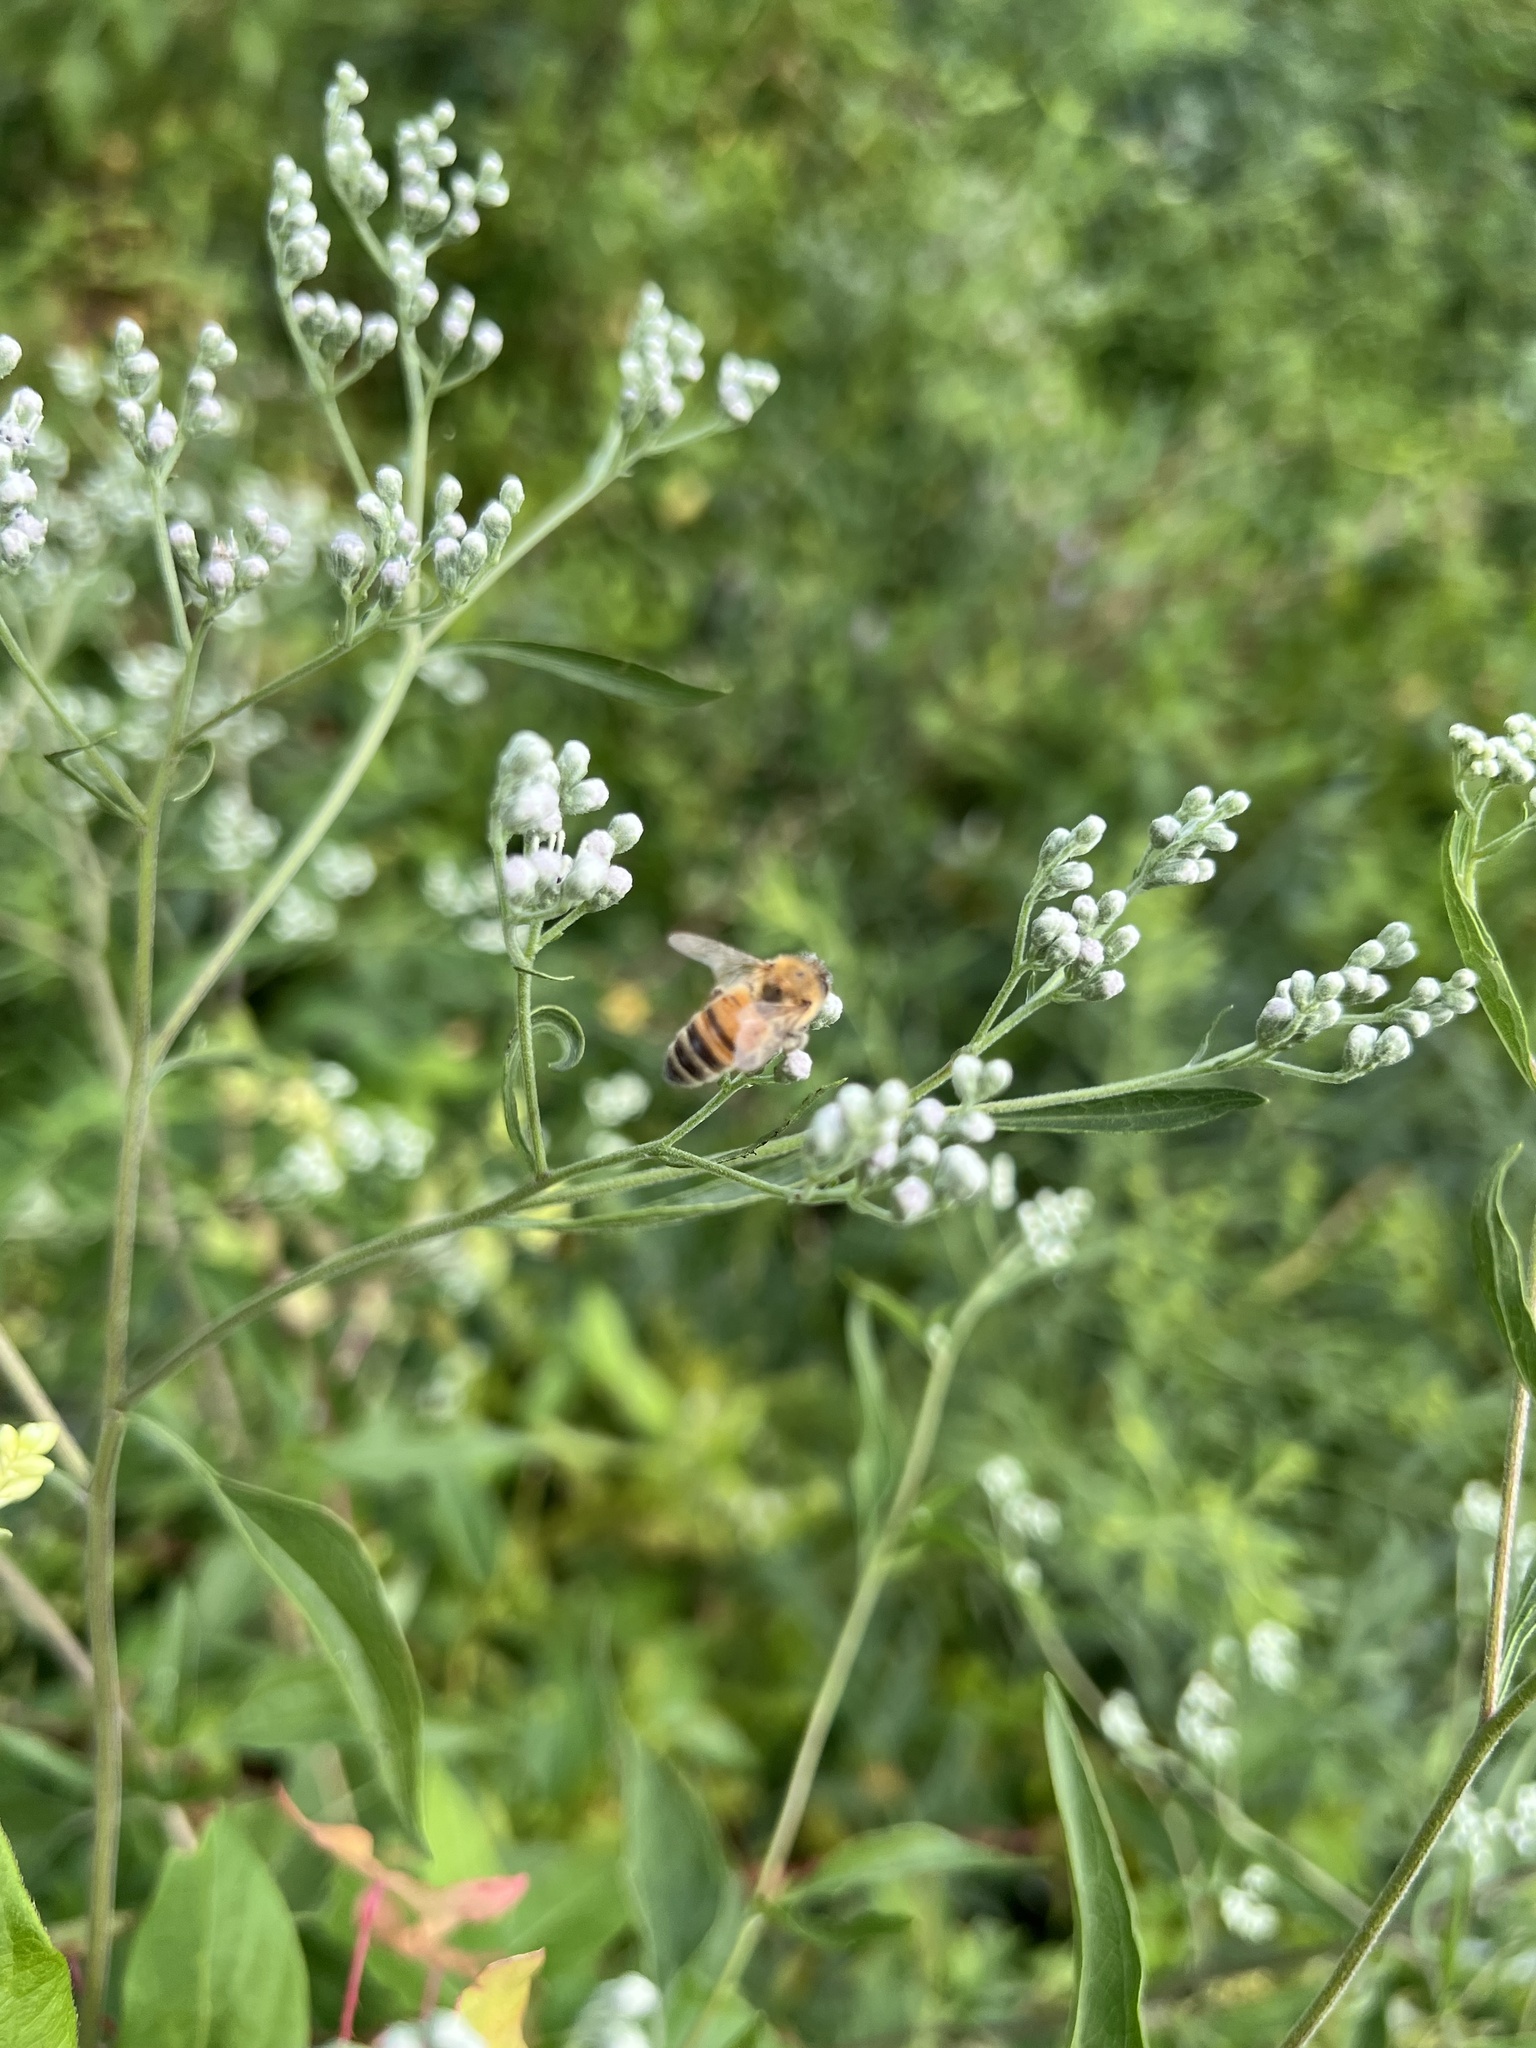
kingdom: Animalia
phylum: Arthropoda
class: Insecta
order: Hymenoptera
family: Apidae
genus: Apis
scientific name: Apis mellifera
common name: Honey bee
